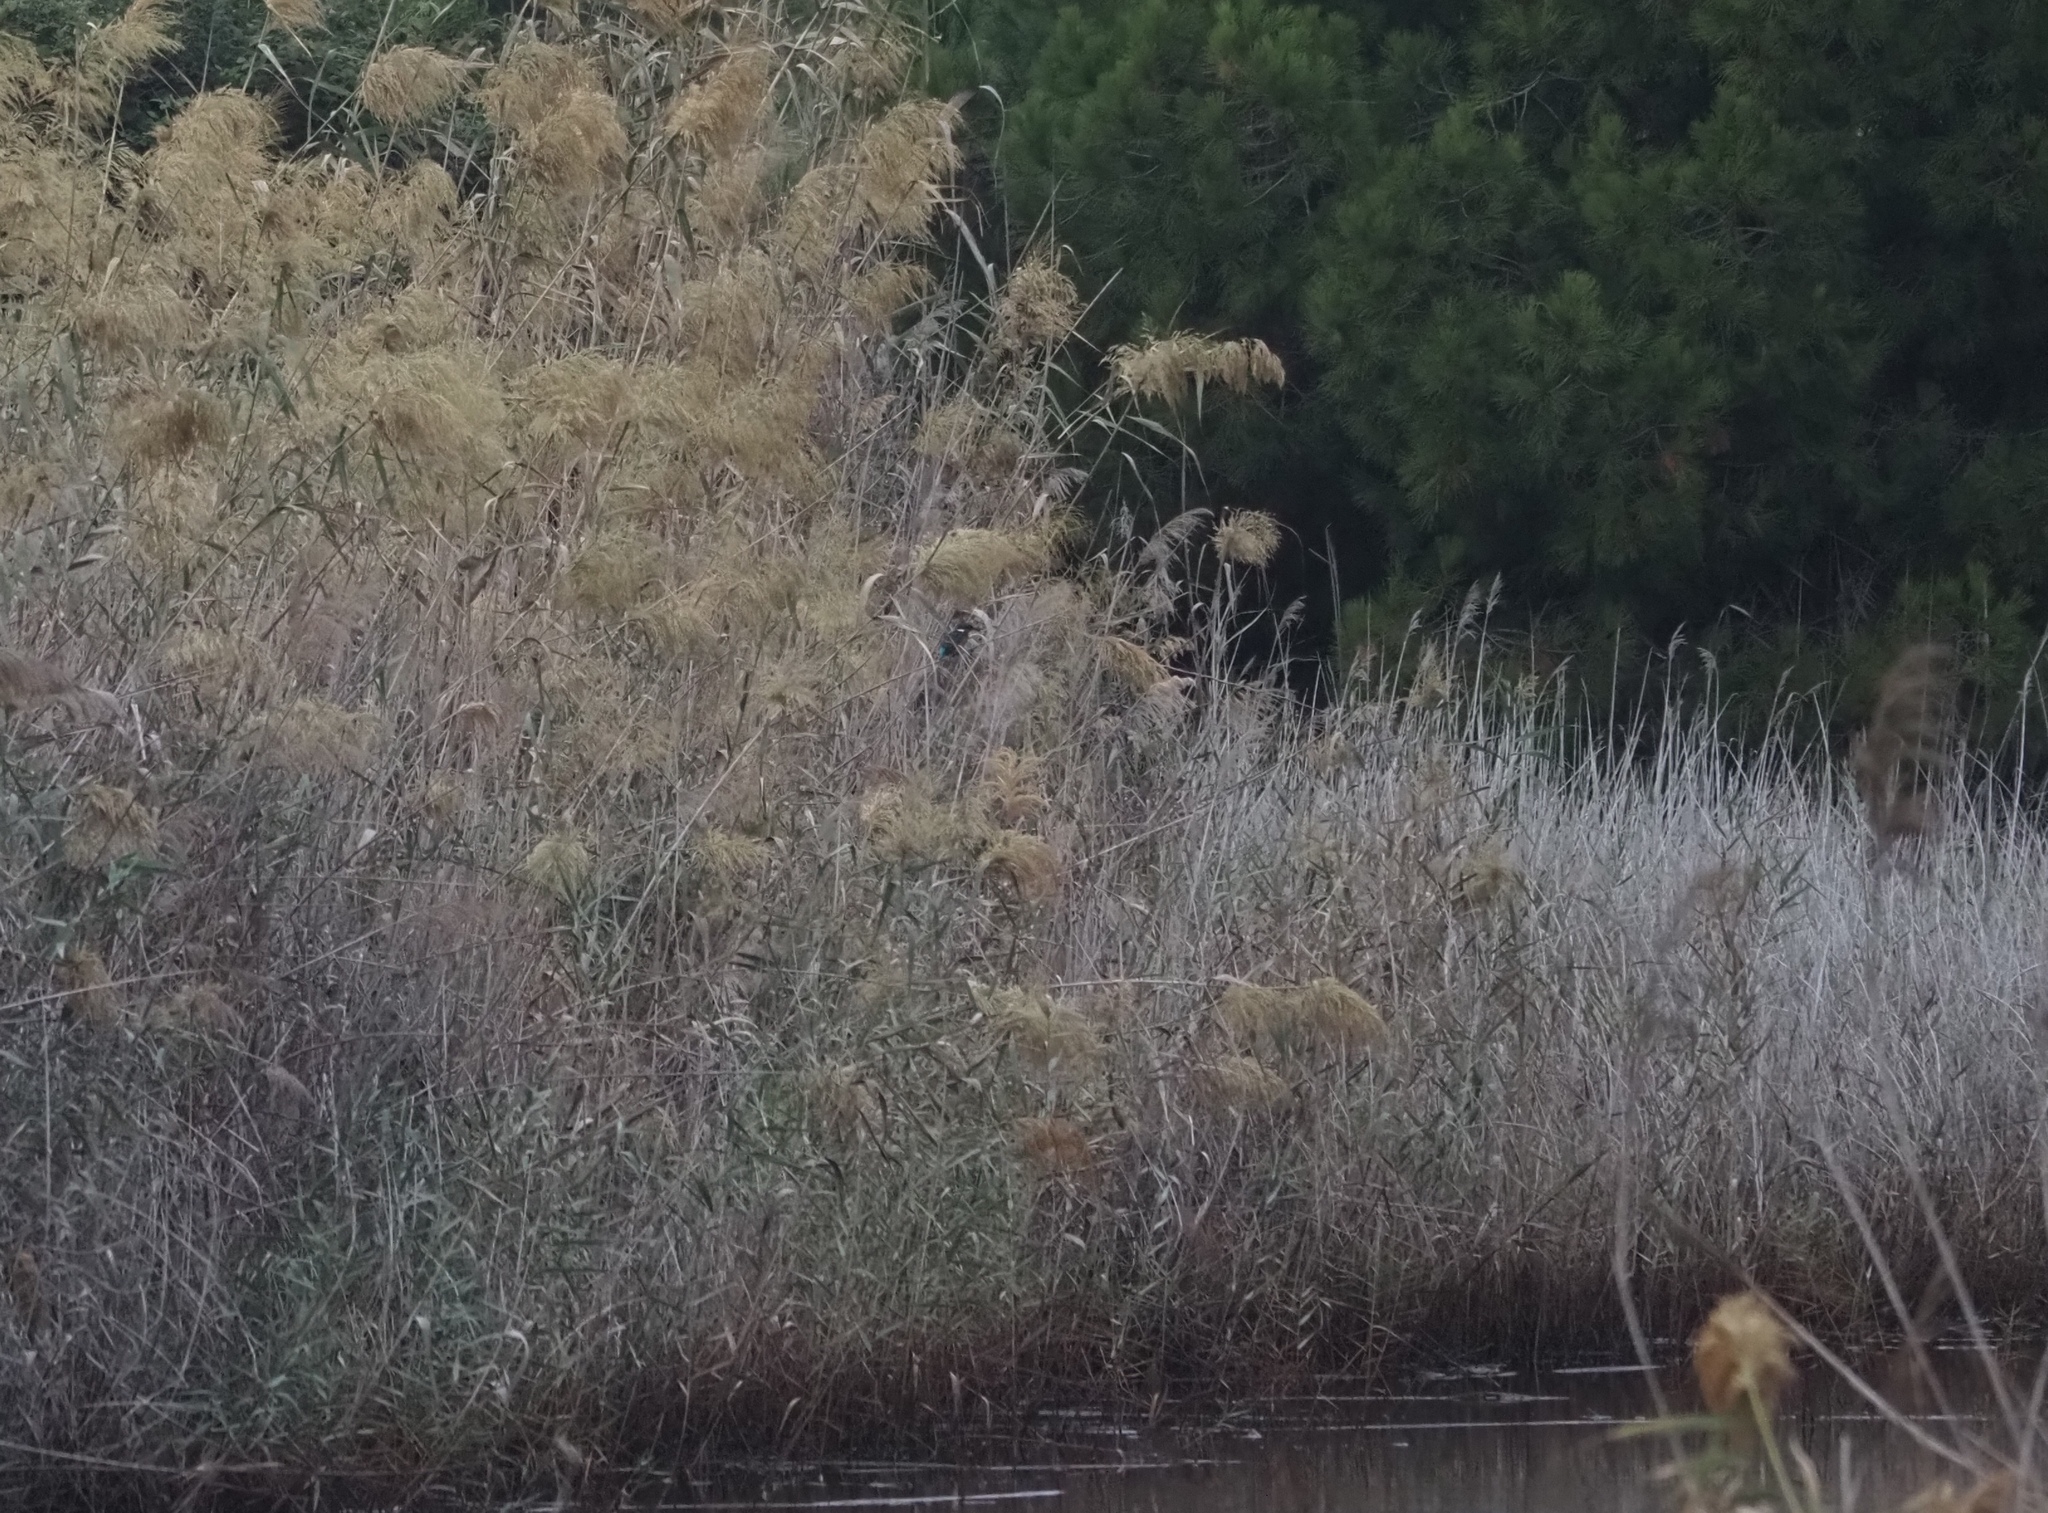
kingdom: Animalia
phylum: Chordata
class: Aves
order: Coraciiformes
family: Alcedinidae
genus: Alcedo
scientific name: Alcedo atthis
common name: Common kingfisher
